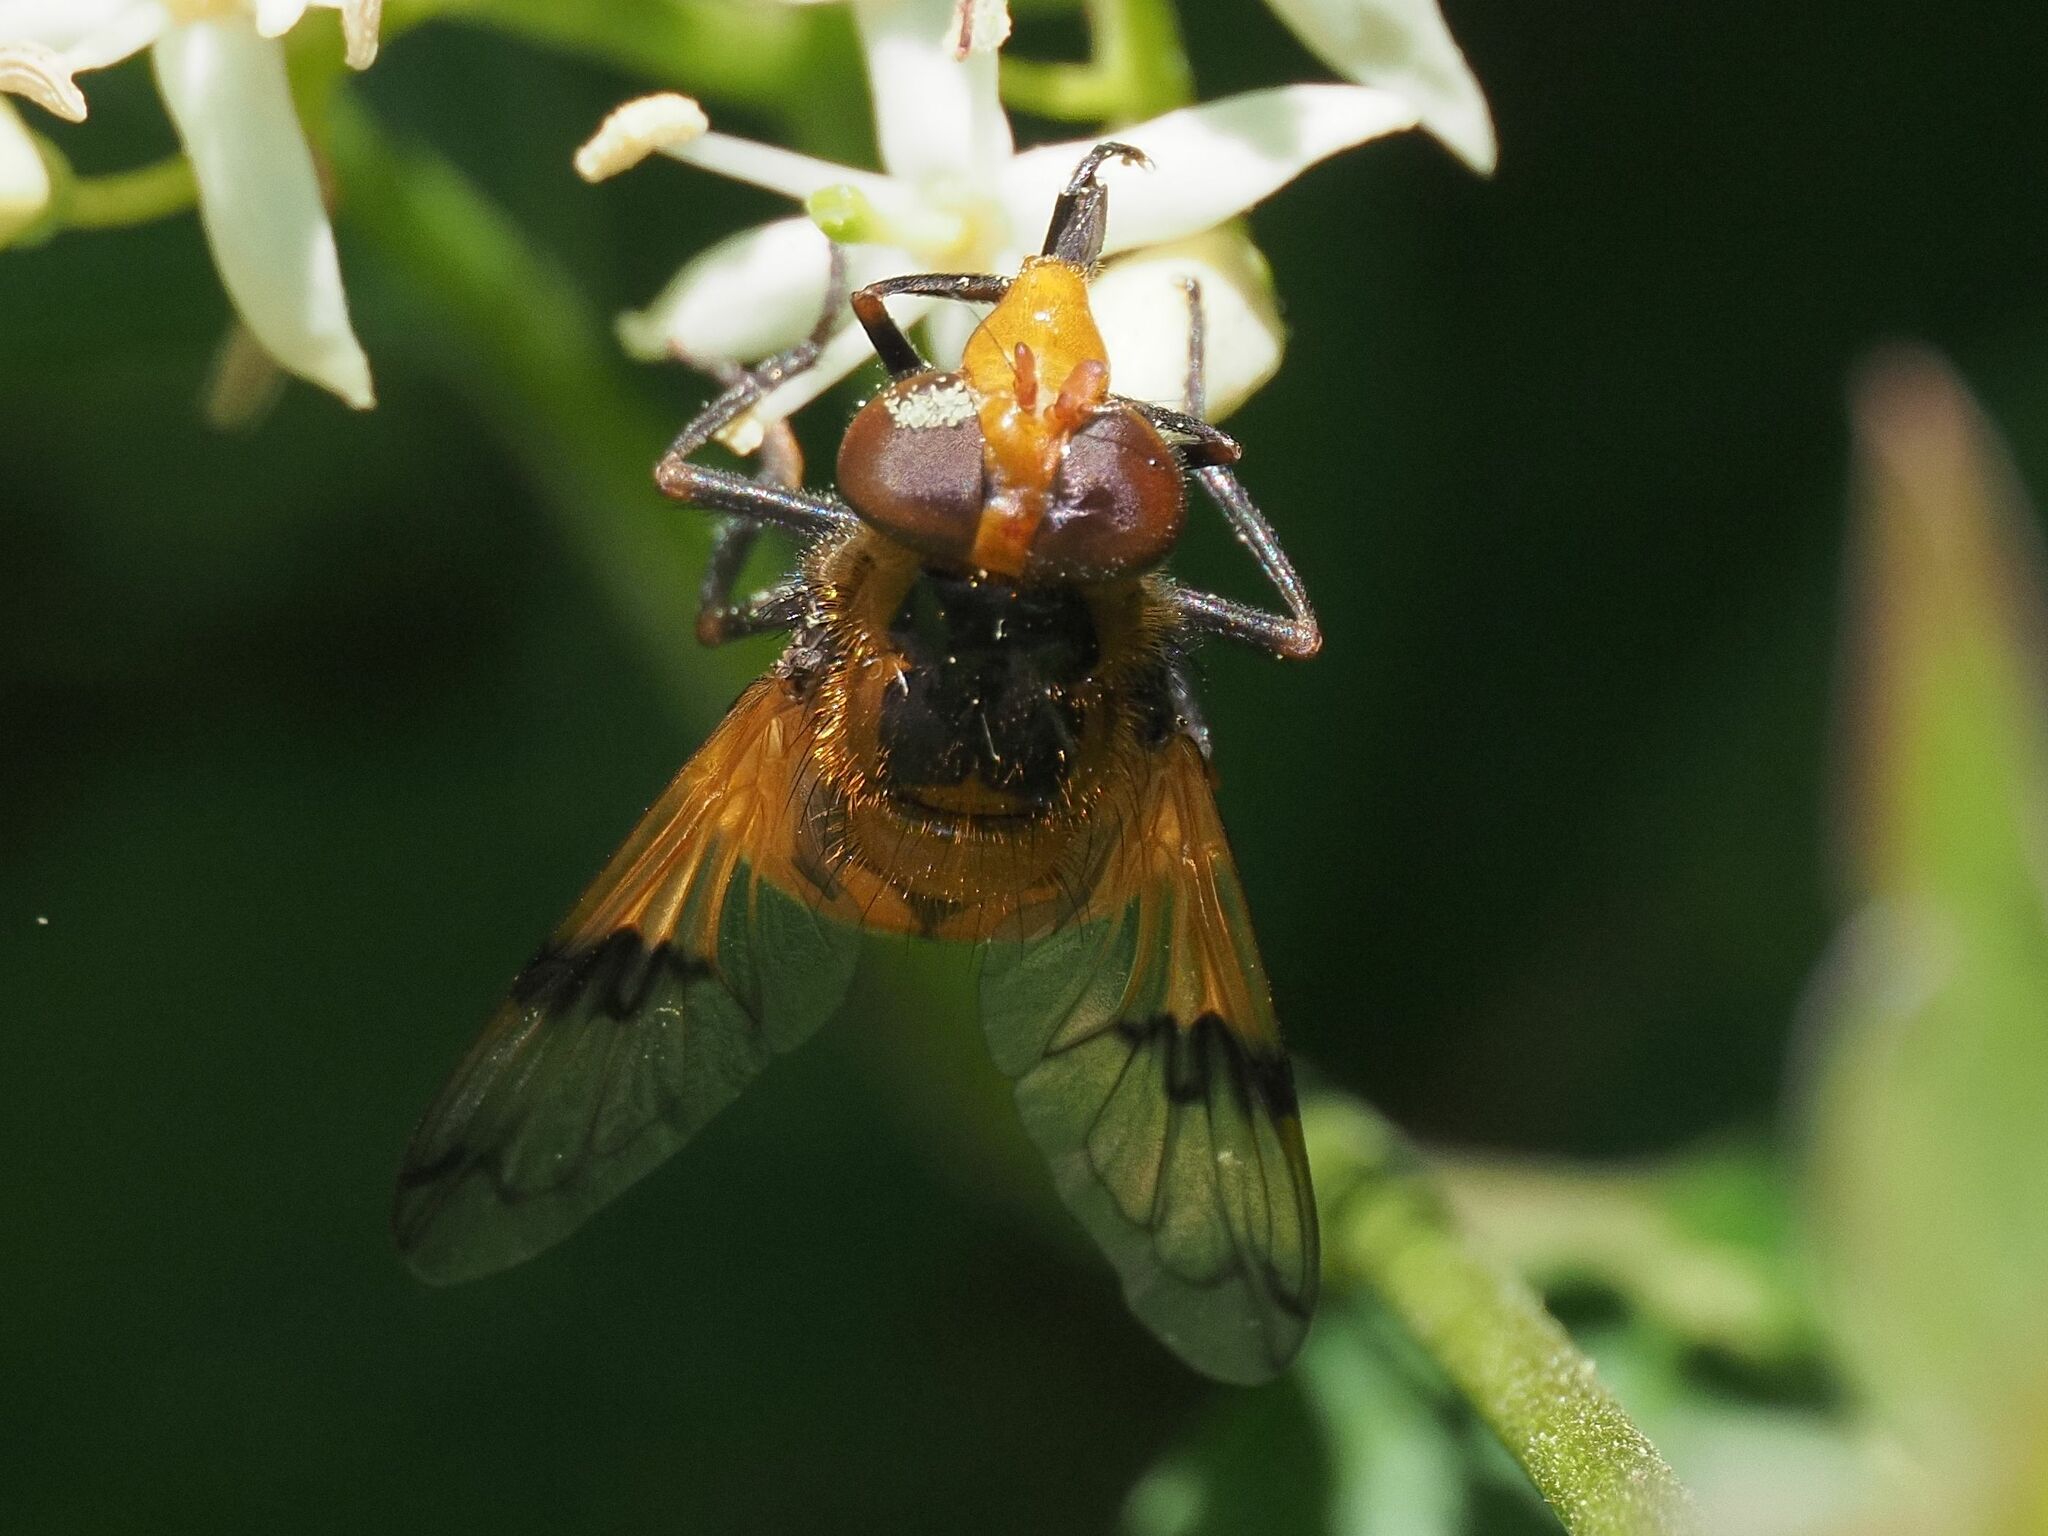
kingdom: Animalia
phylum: Arthropoda
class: Insecta
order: Diptera
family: Syrphidae
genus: Volucella
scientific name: Volucella inflata
